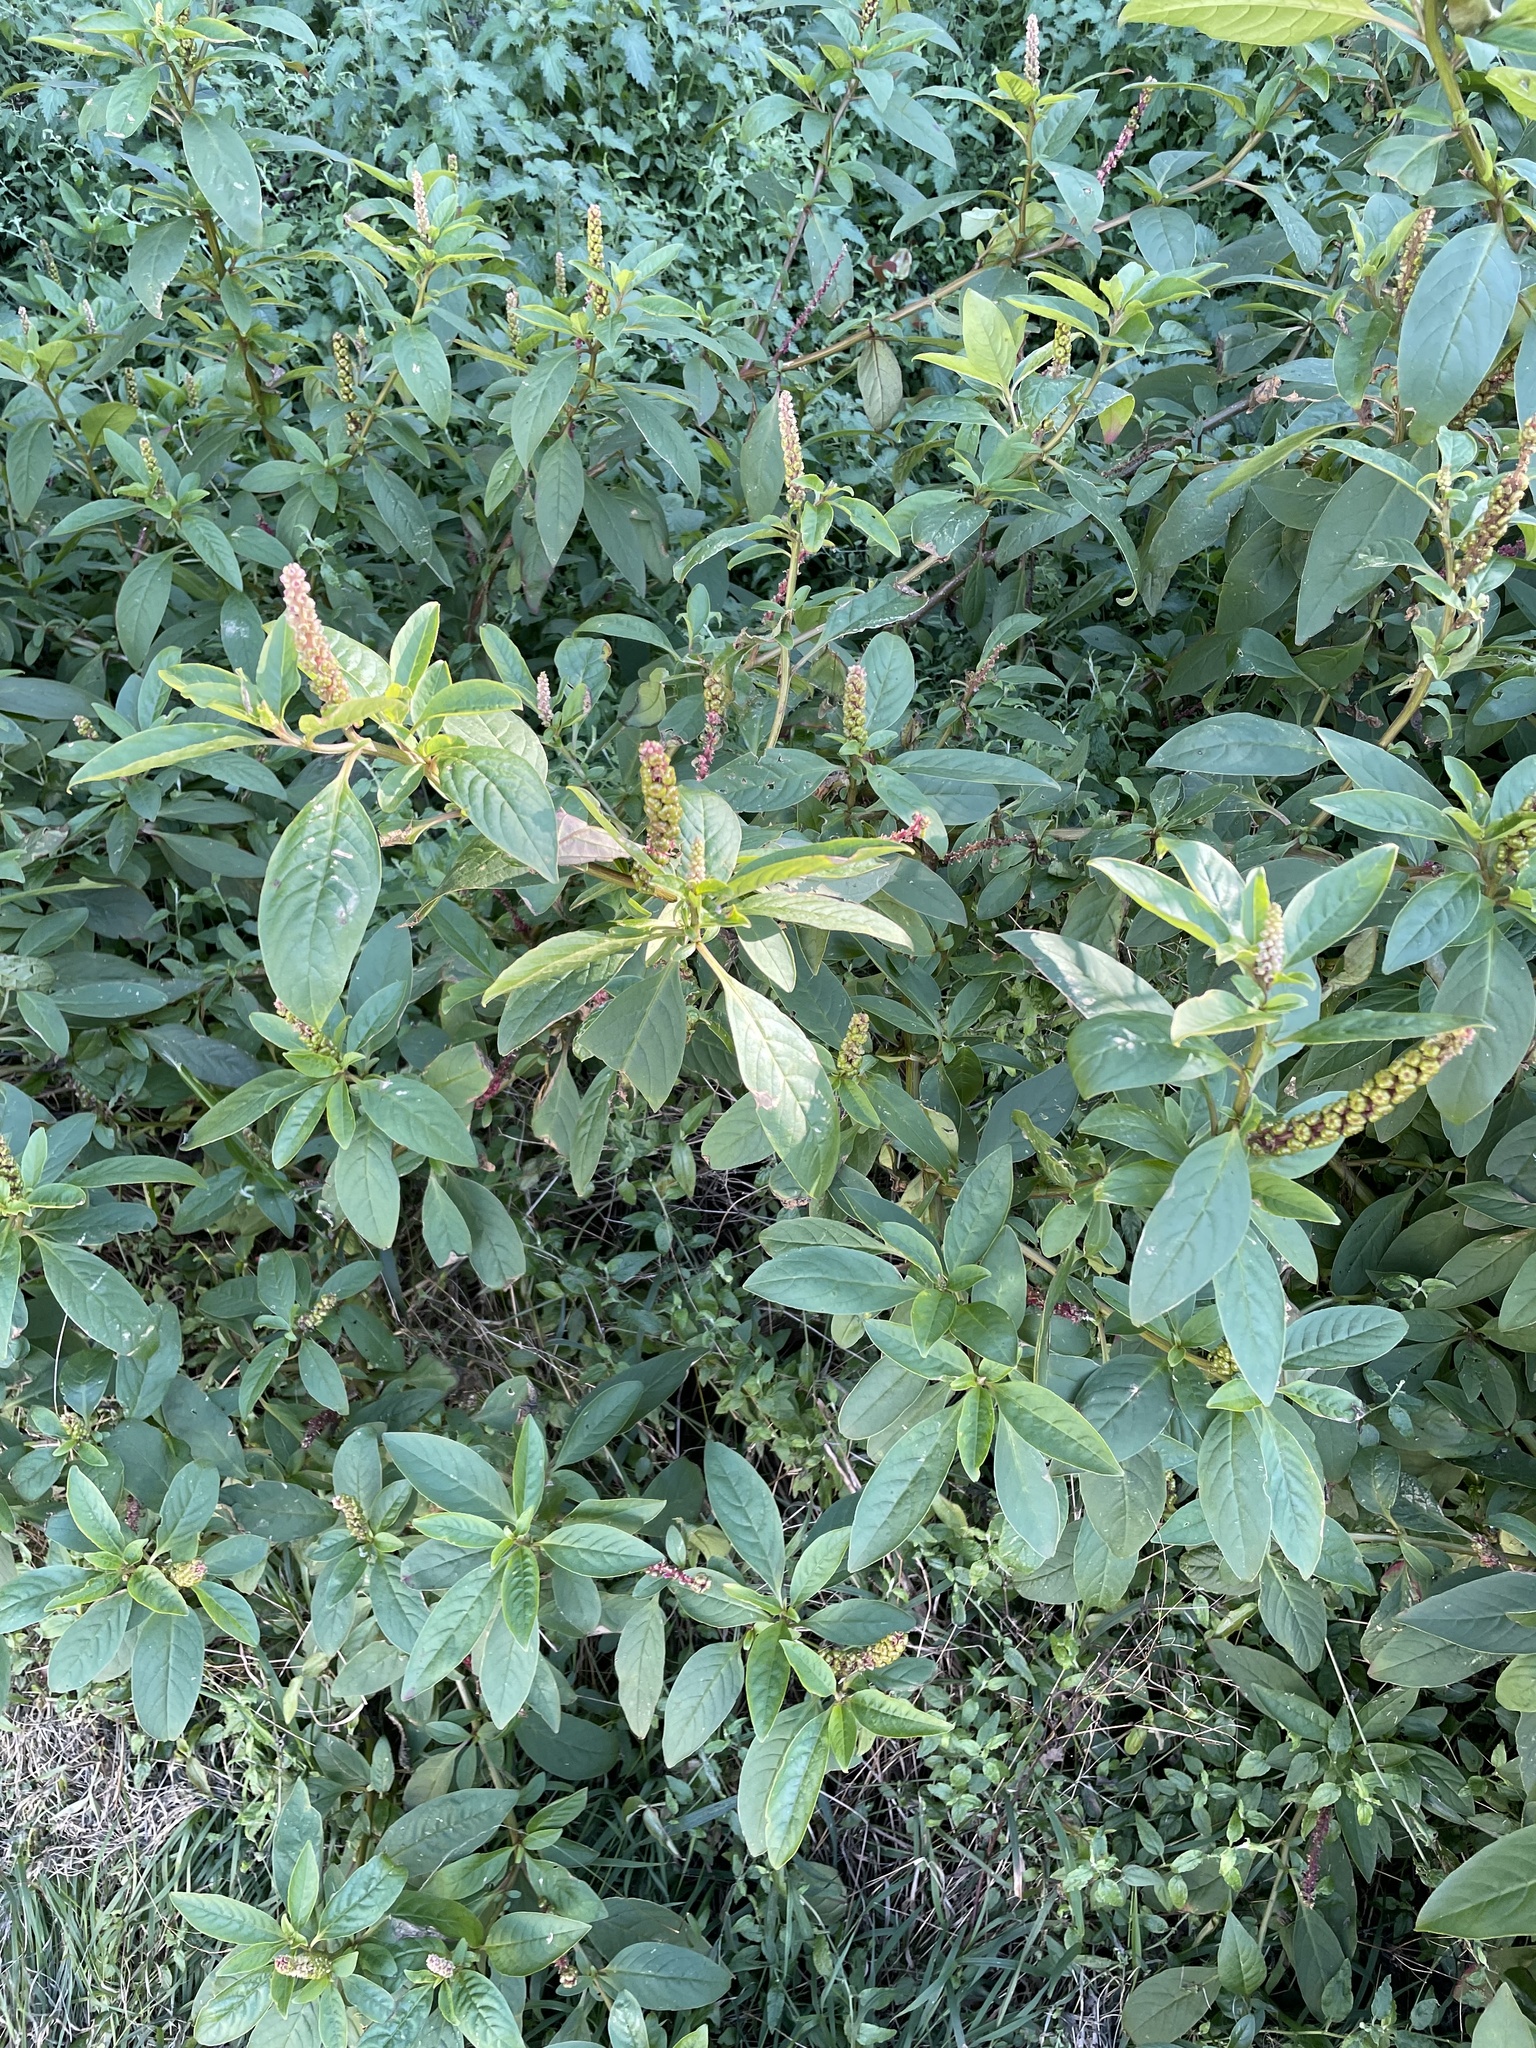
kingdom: Plantae
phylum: Tracheophyta
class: Magnoliopsida
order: Caryophyllales
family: Phytolaccaceae
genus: Phytolacca
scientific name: Phytolacca icosandra
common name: Button pokeweed
